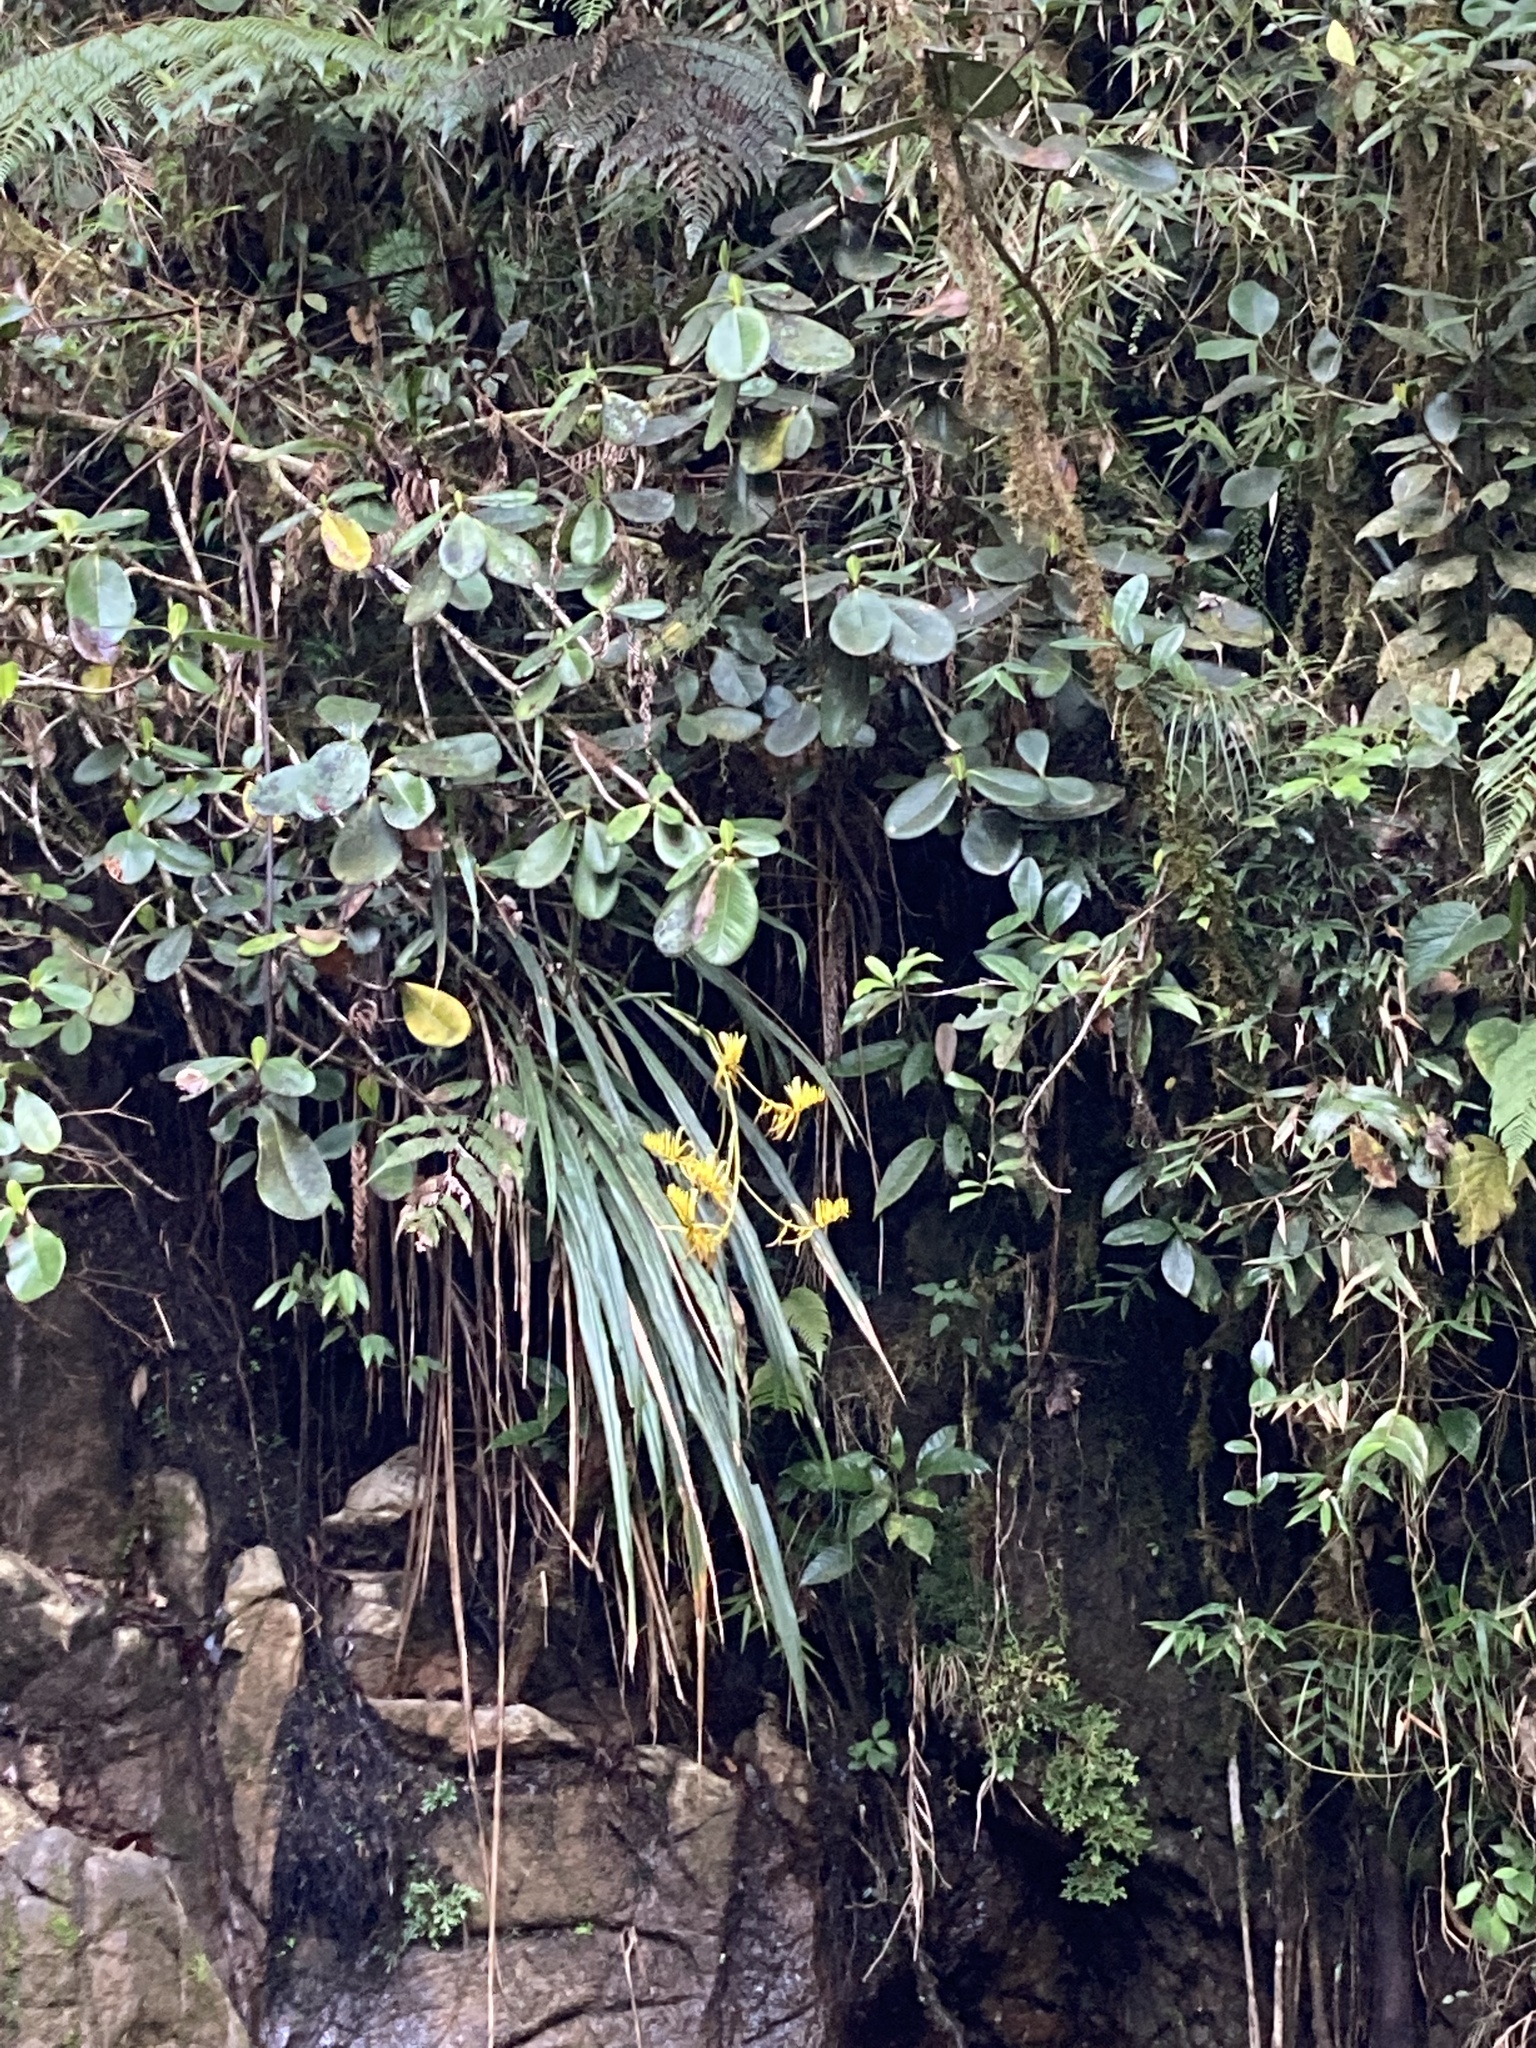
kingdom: Plantae
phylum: Tracheophyta
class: Liliopsida
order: Poales
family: Bromeliaceae
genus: Pitcairnia
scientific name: Pitcairnia wilburiana
